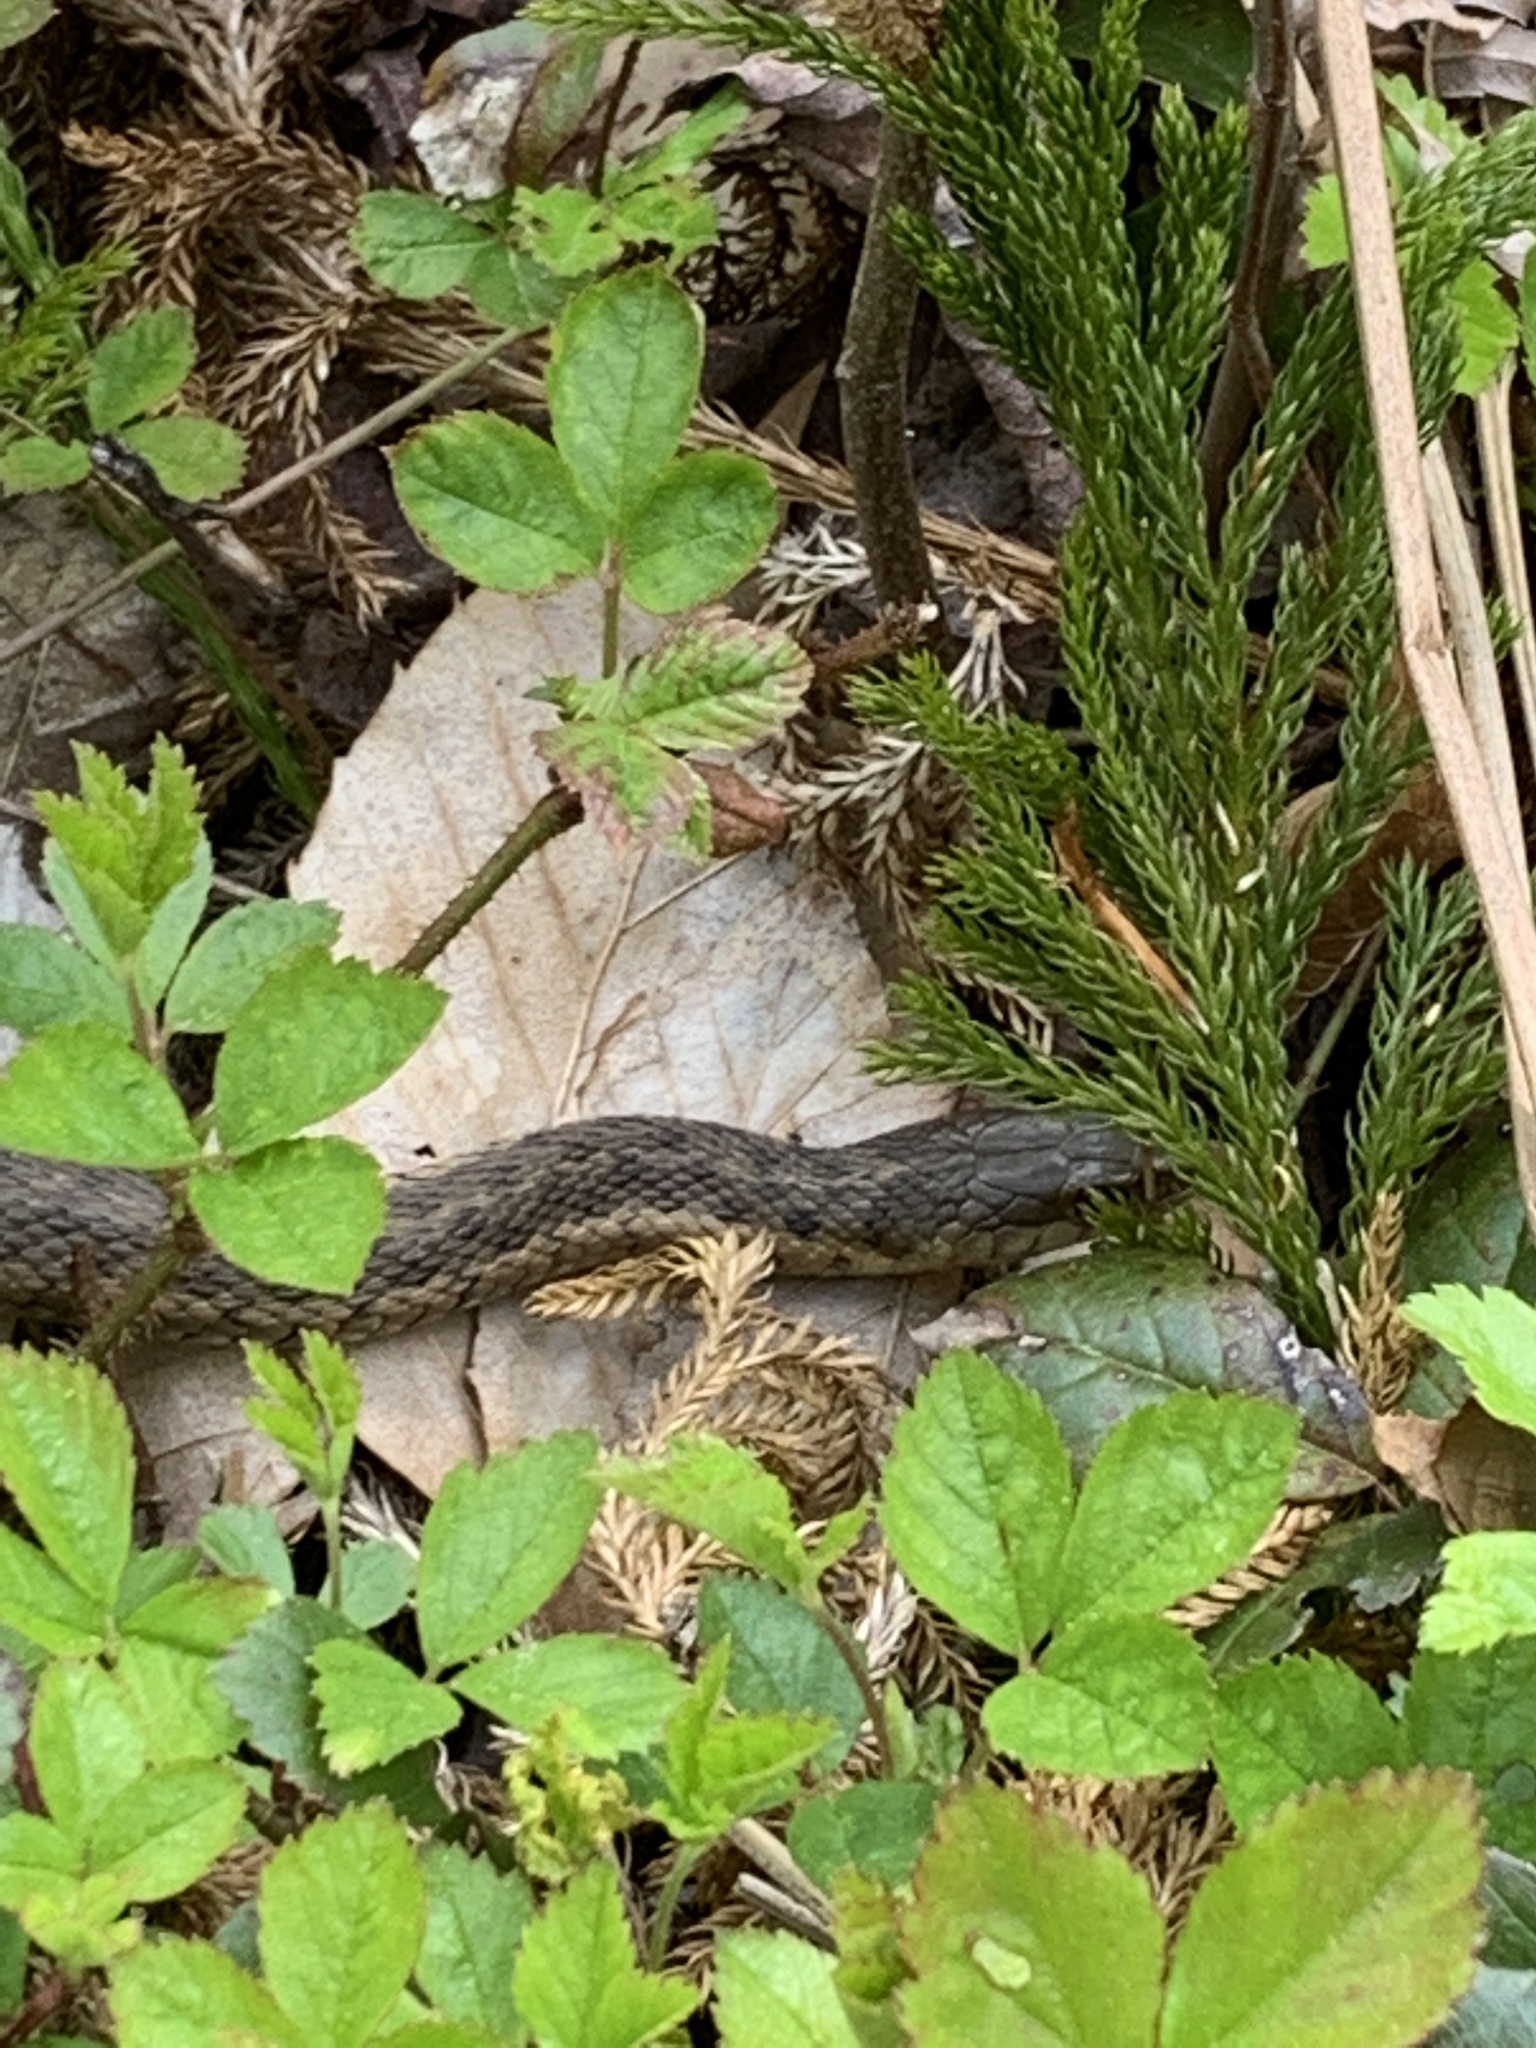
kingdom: Animalia
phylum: Chordata
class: Squamata
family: Colubridae
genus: Thamnophis
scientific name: Thamnophis sirtalis
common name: Common garter snake
